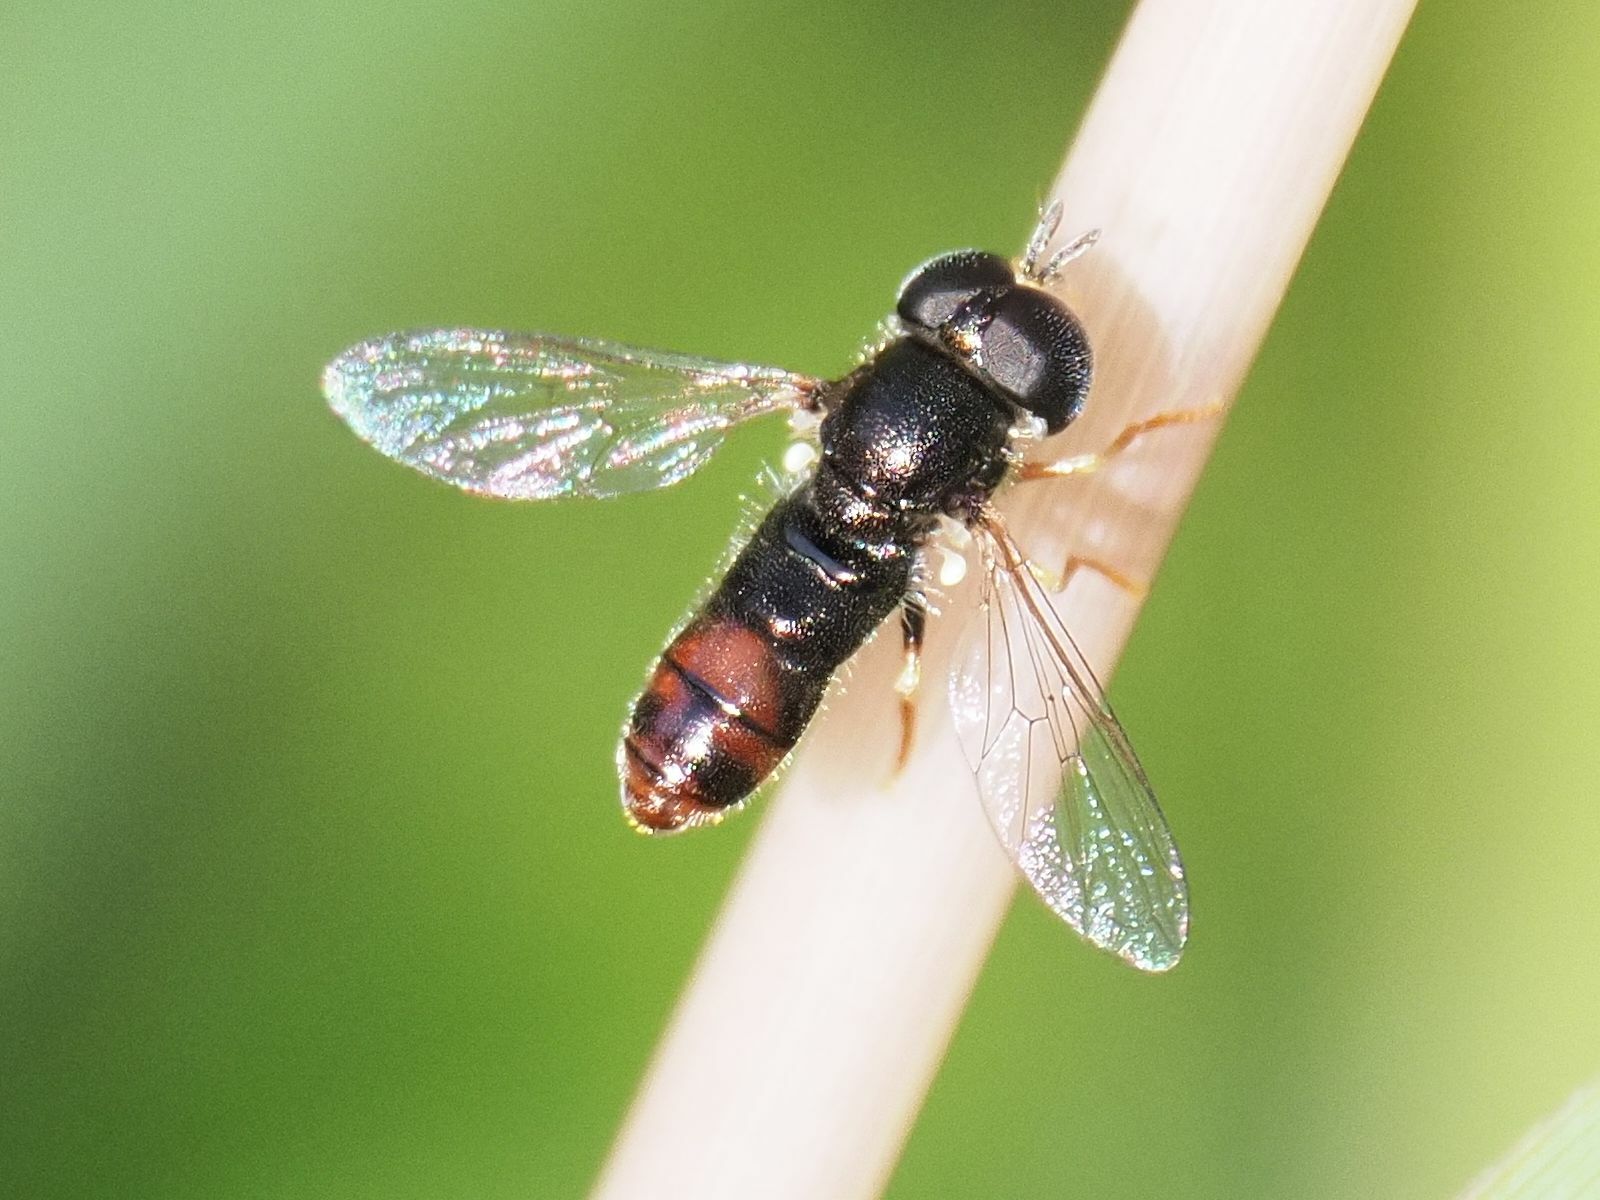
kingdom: Animalia
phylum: Arthropoda
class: Insecta
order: Diptera
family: Syrphidae
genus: Paragus
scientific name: Paragus tibialis
